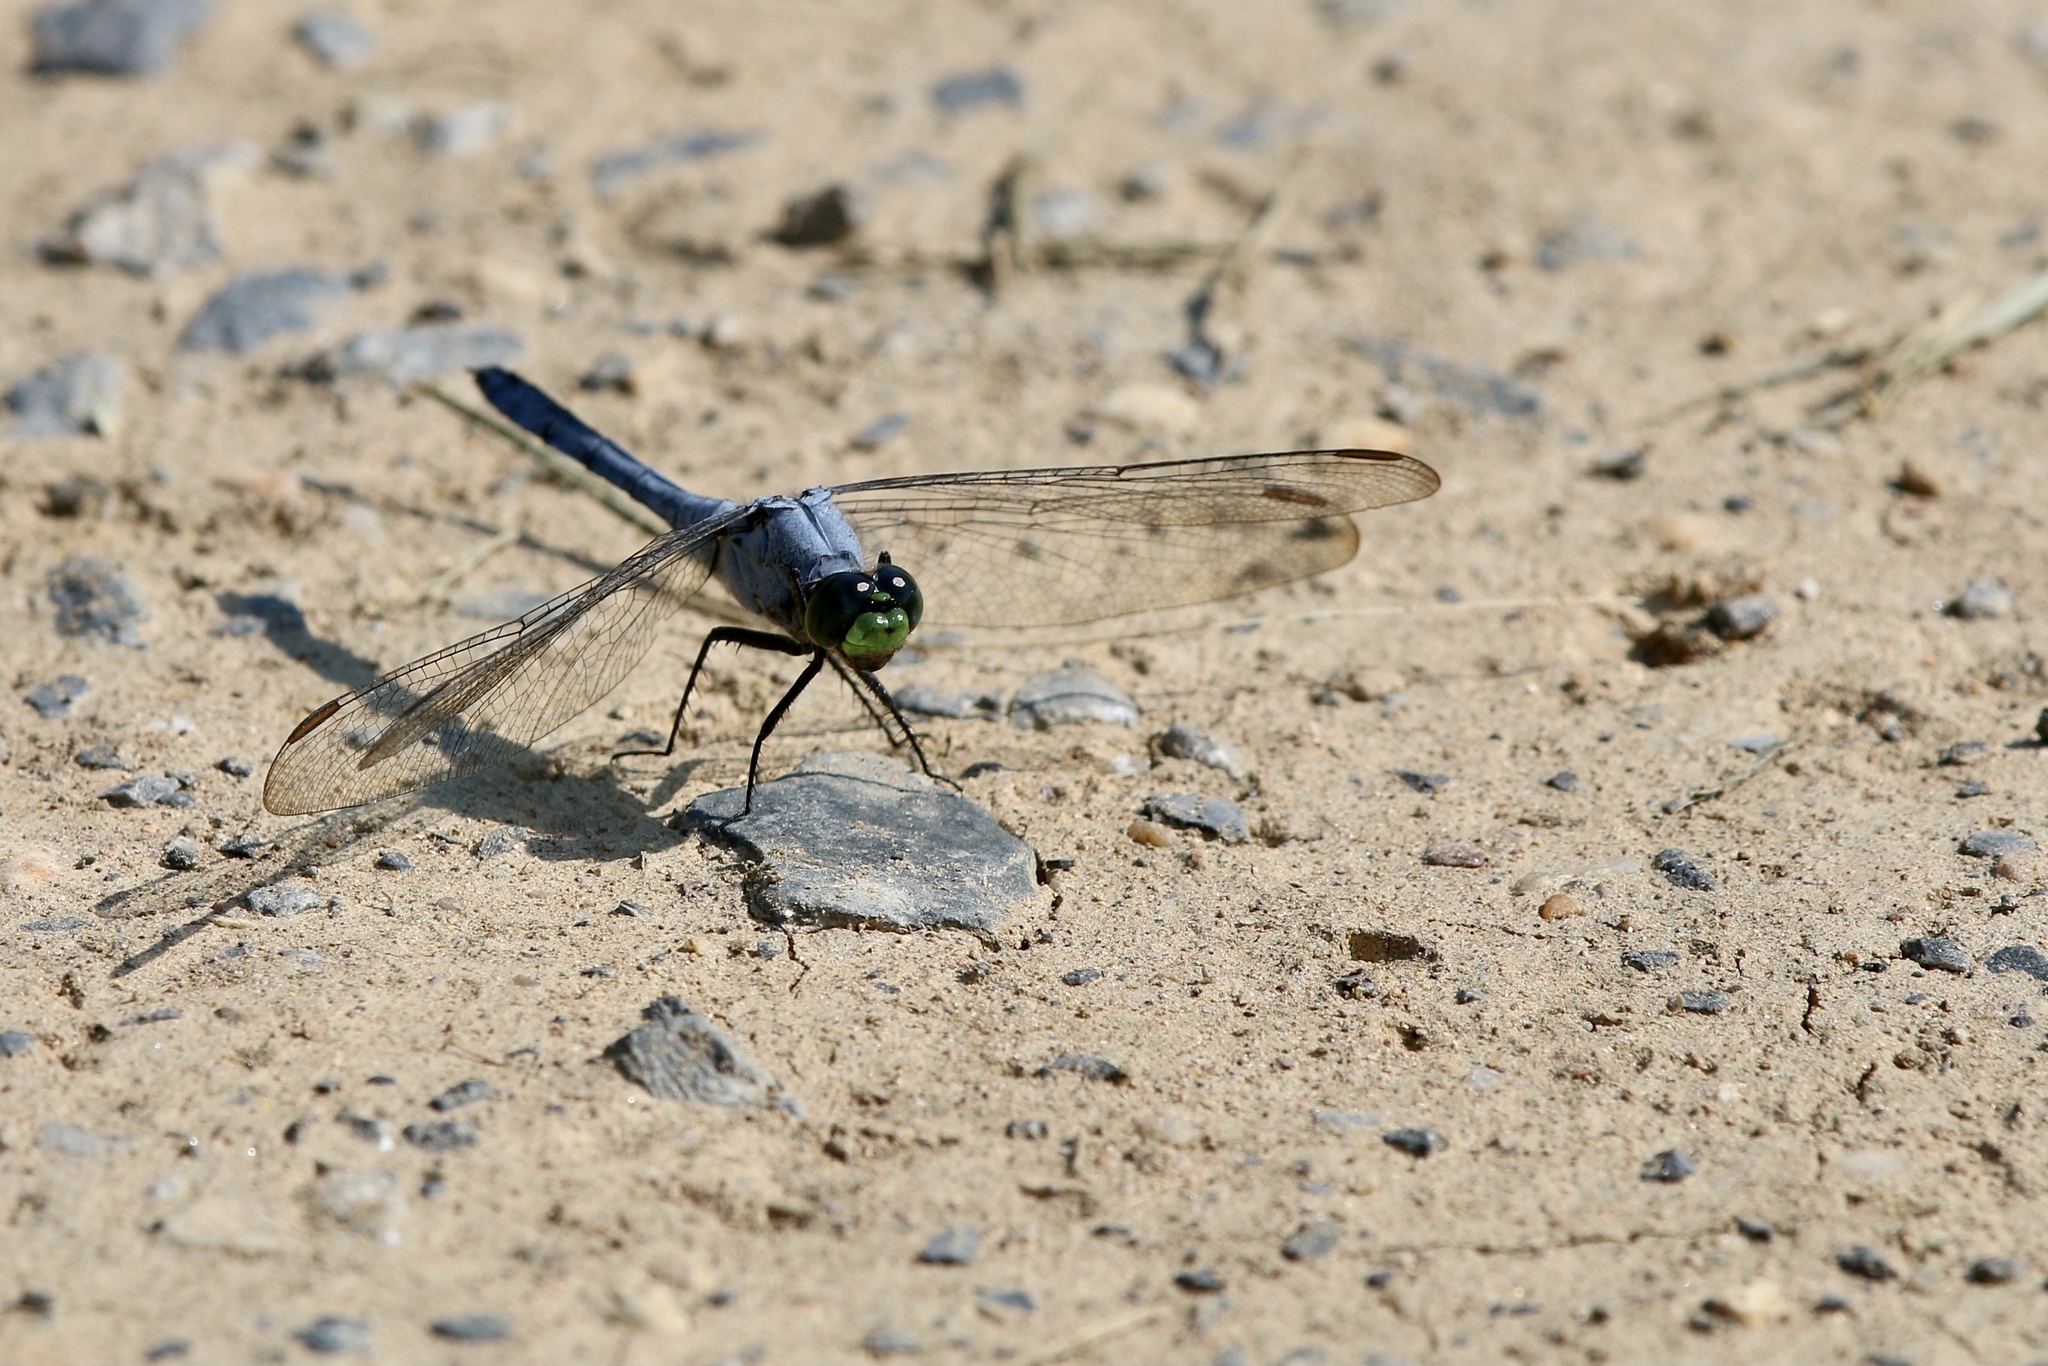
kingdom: Animalia
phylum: Arthropoda
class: Insecta
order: Odonata
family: Libellulidae
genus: Erythemis
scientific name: Erythemis simplicicollis
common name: Eastern pondhawk
